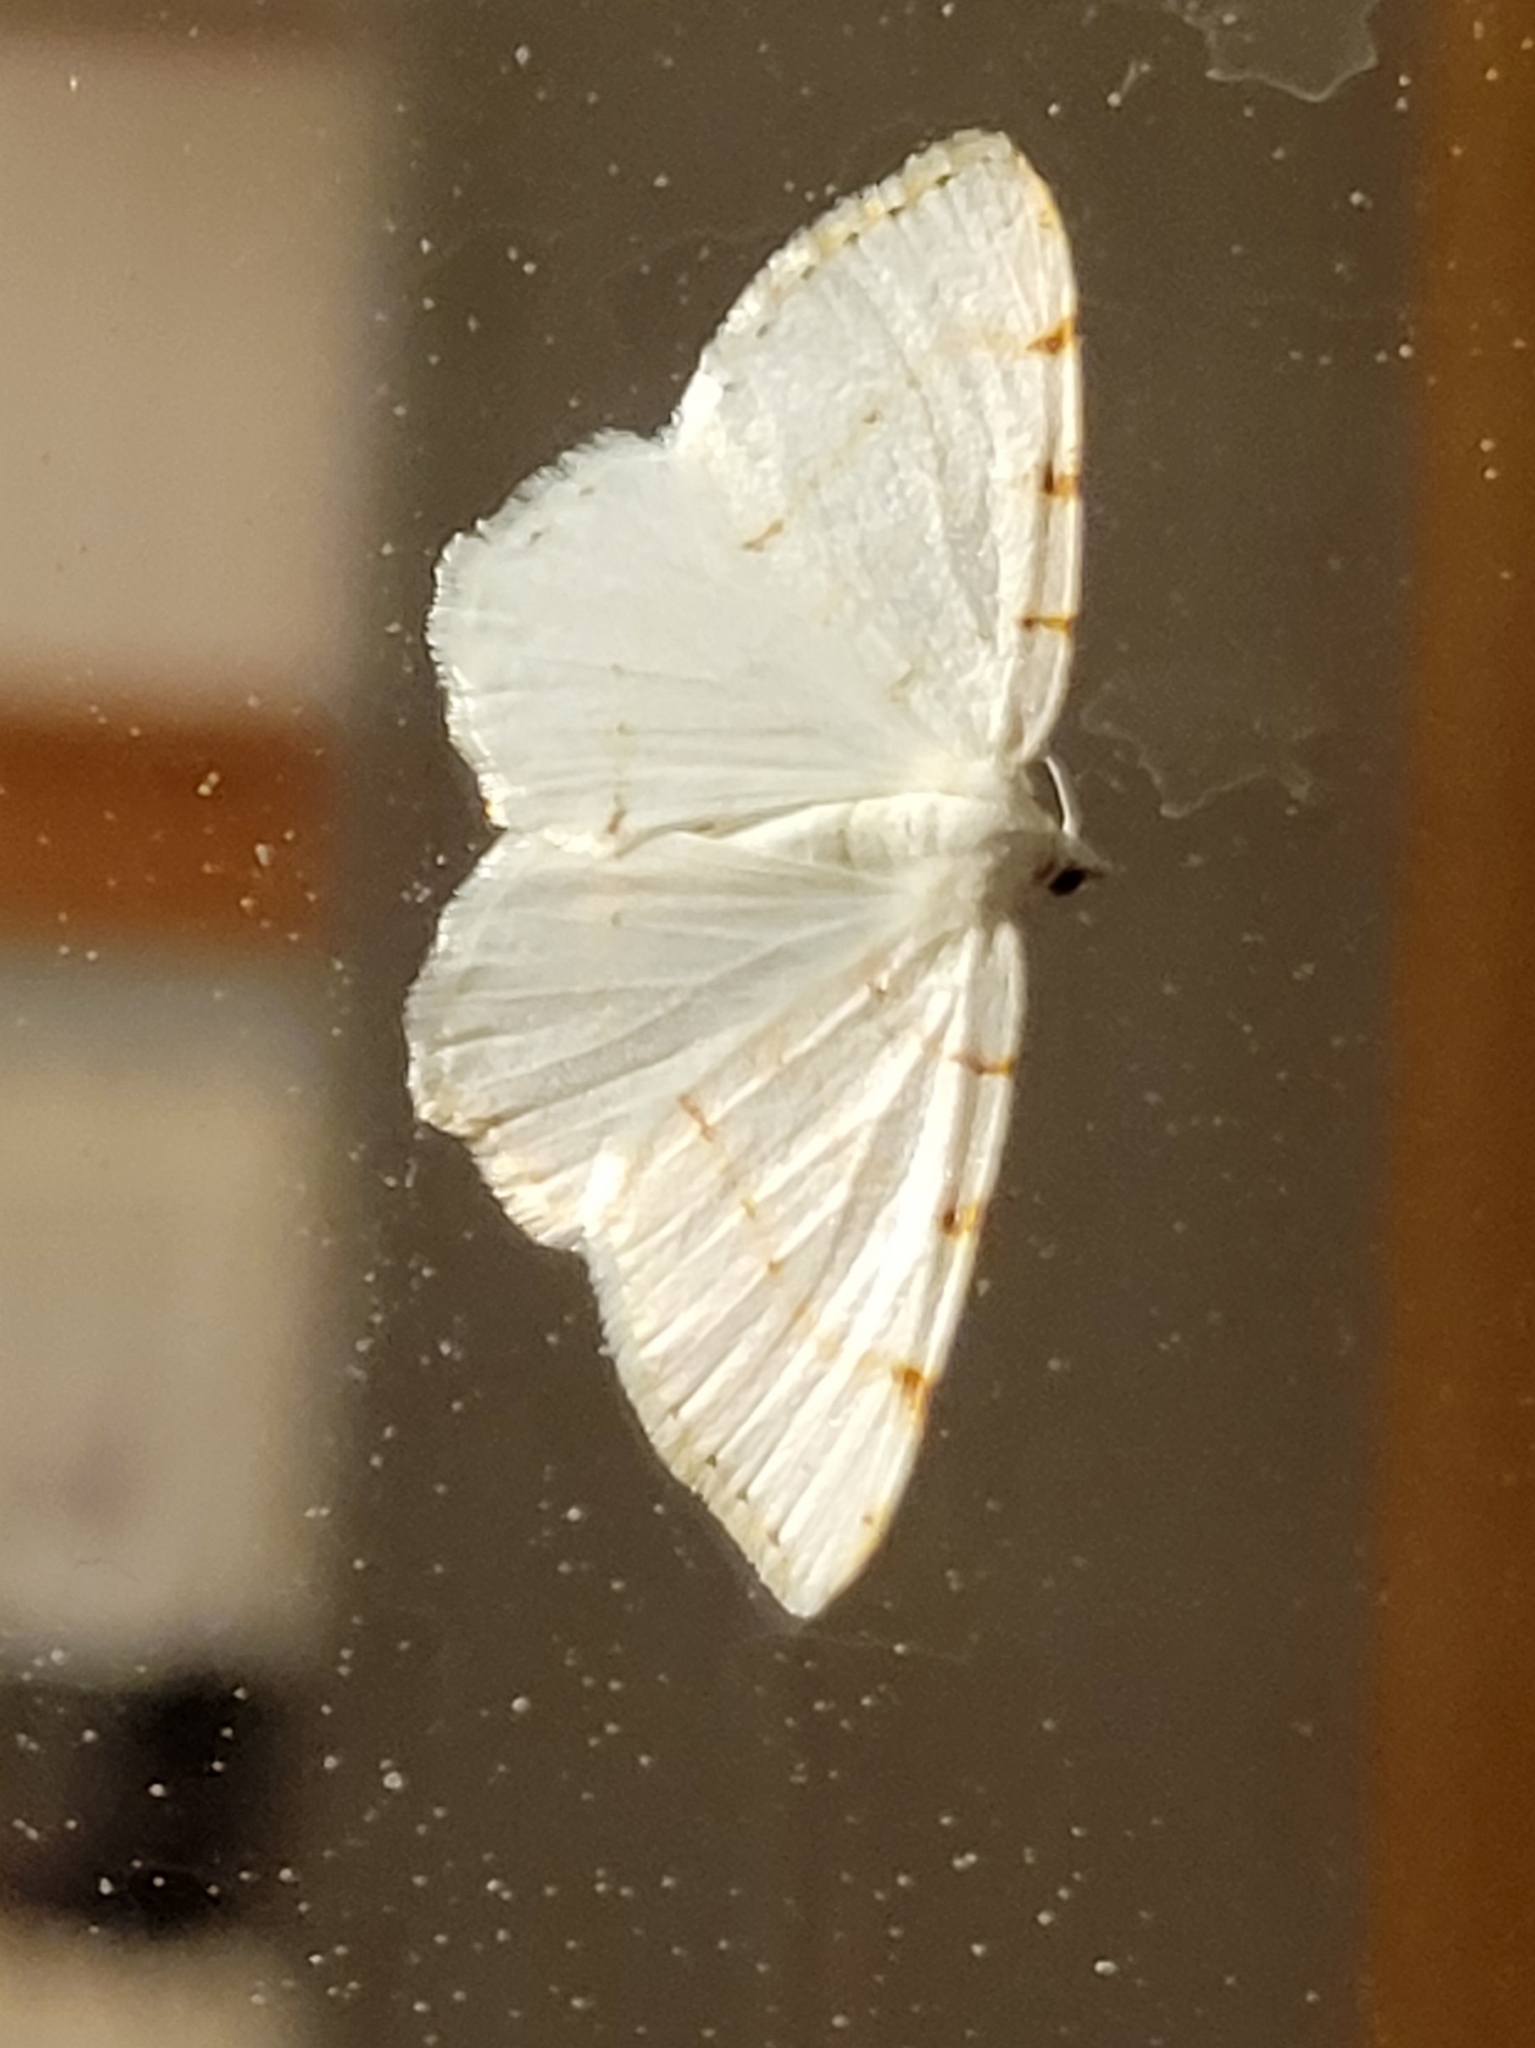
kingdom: Animalia
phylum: Arthropoda
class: Insecta
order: Lepidoptera
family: Geometridae
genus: Macaria
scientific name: Macaria pustularia
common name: Lesser maple spanworm moth
